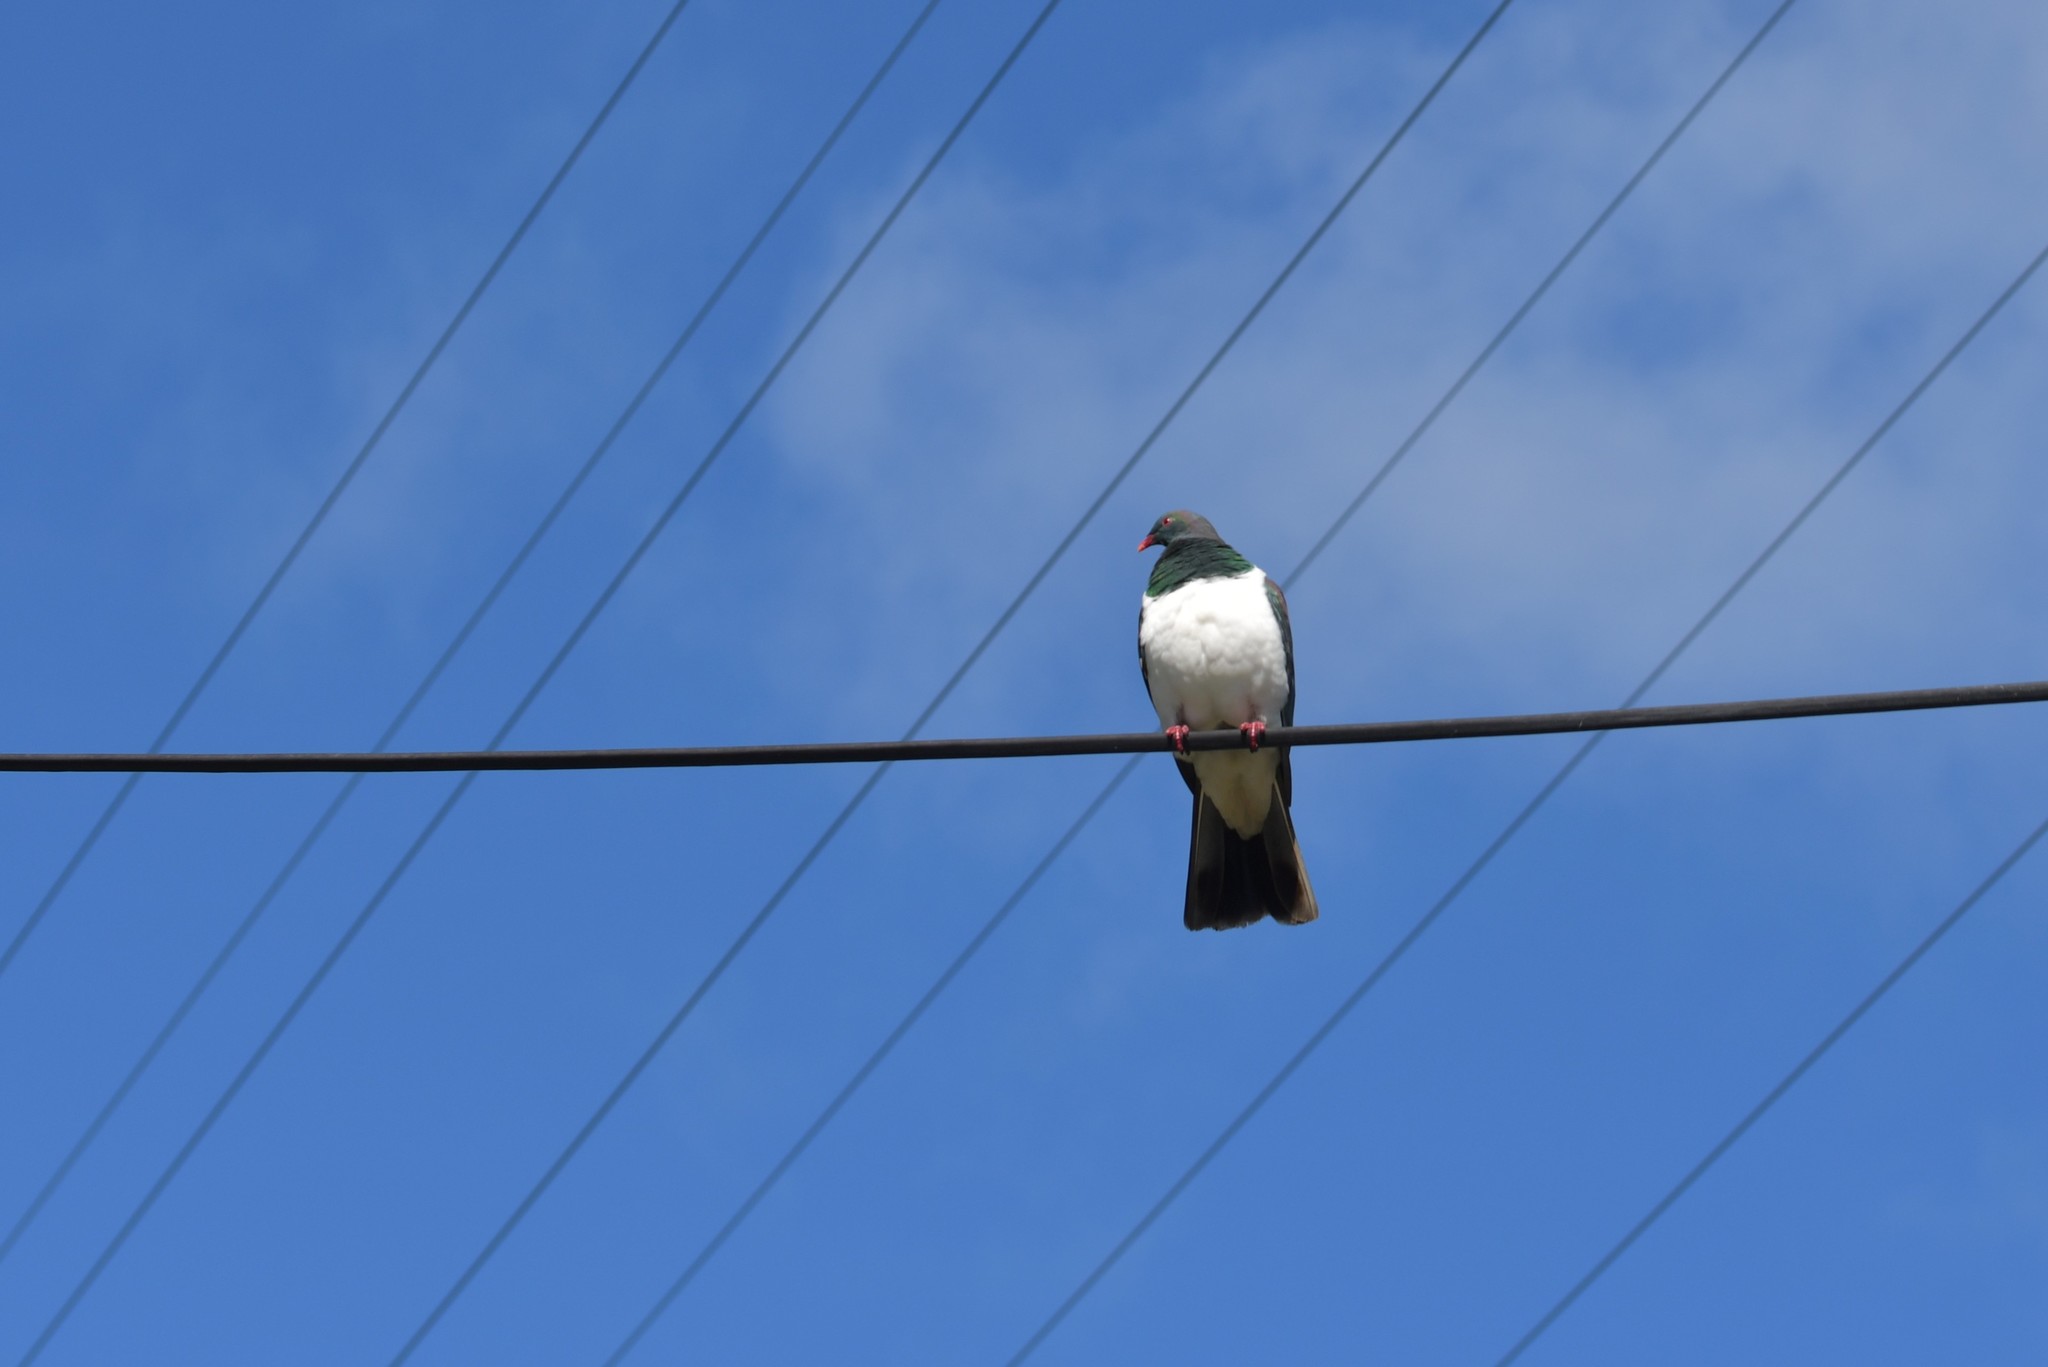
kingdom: Animalia
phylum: Chordata
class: Aves
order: Columbiformes
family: Columbidae
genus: Hemiphaga
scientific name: Hemiphaga novaeseelandiae
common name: New zealand pigeon
